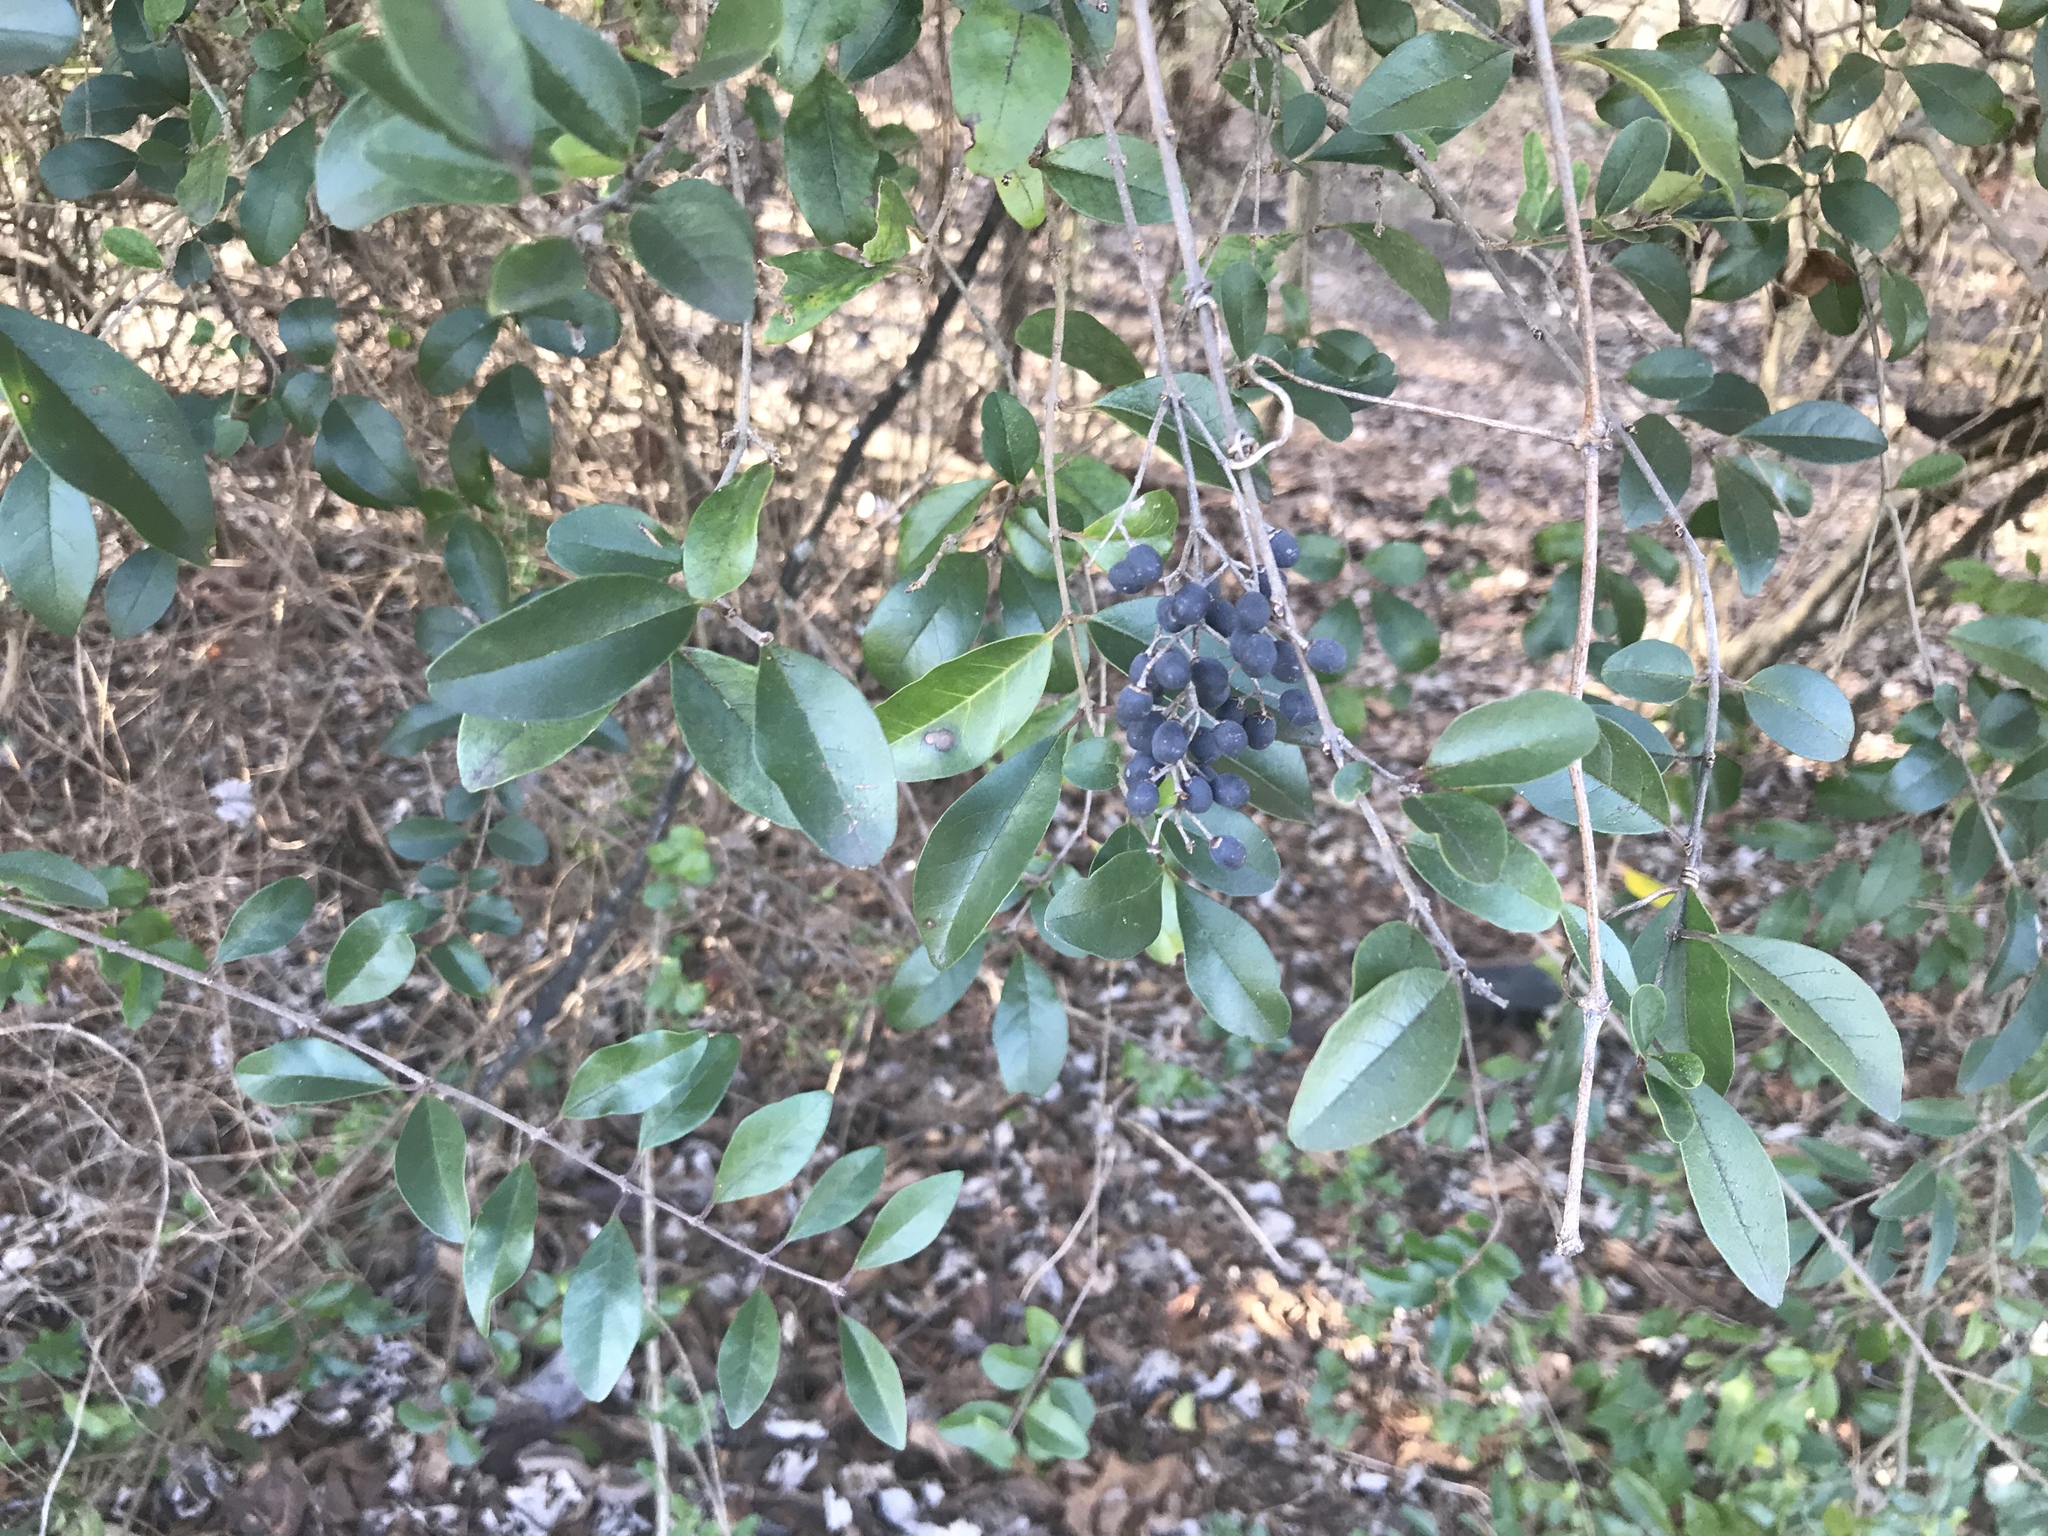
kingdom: Plantae
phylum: Tracheophyta
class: Magnoliopsida
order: Lamiales
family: Oleaceae
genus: Ligustrum
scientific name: Ligustrum sinense
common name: Chinese privet
